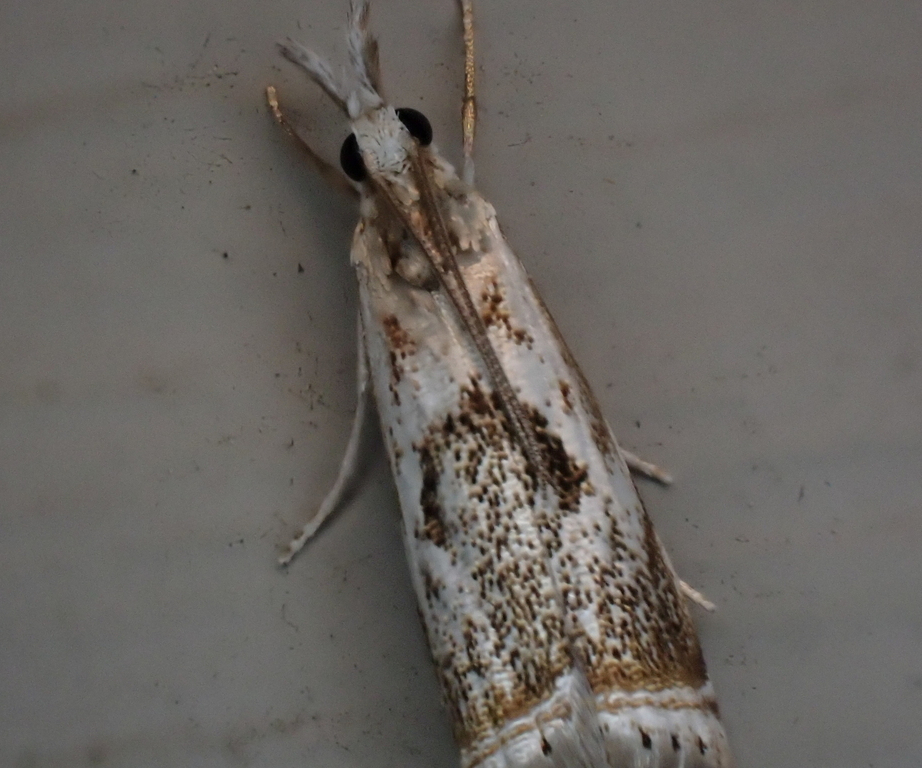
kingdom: Animalia
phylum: Arthropoda
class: Insecta
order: Lepidoptera
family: Crambidae
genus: Microcrambus
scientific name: Microcrambus elegans
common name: Elegant grass-veneer
